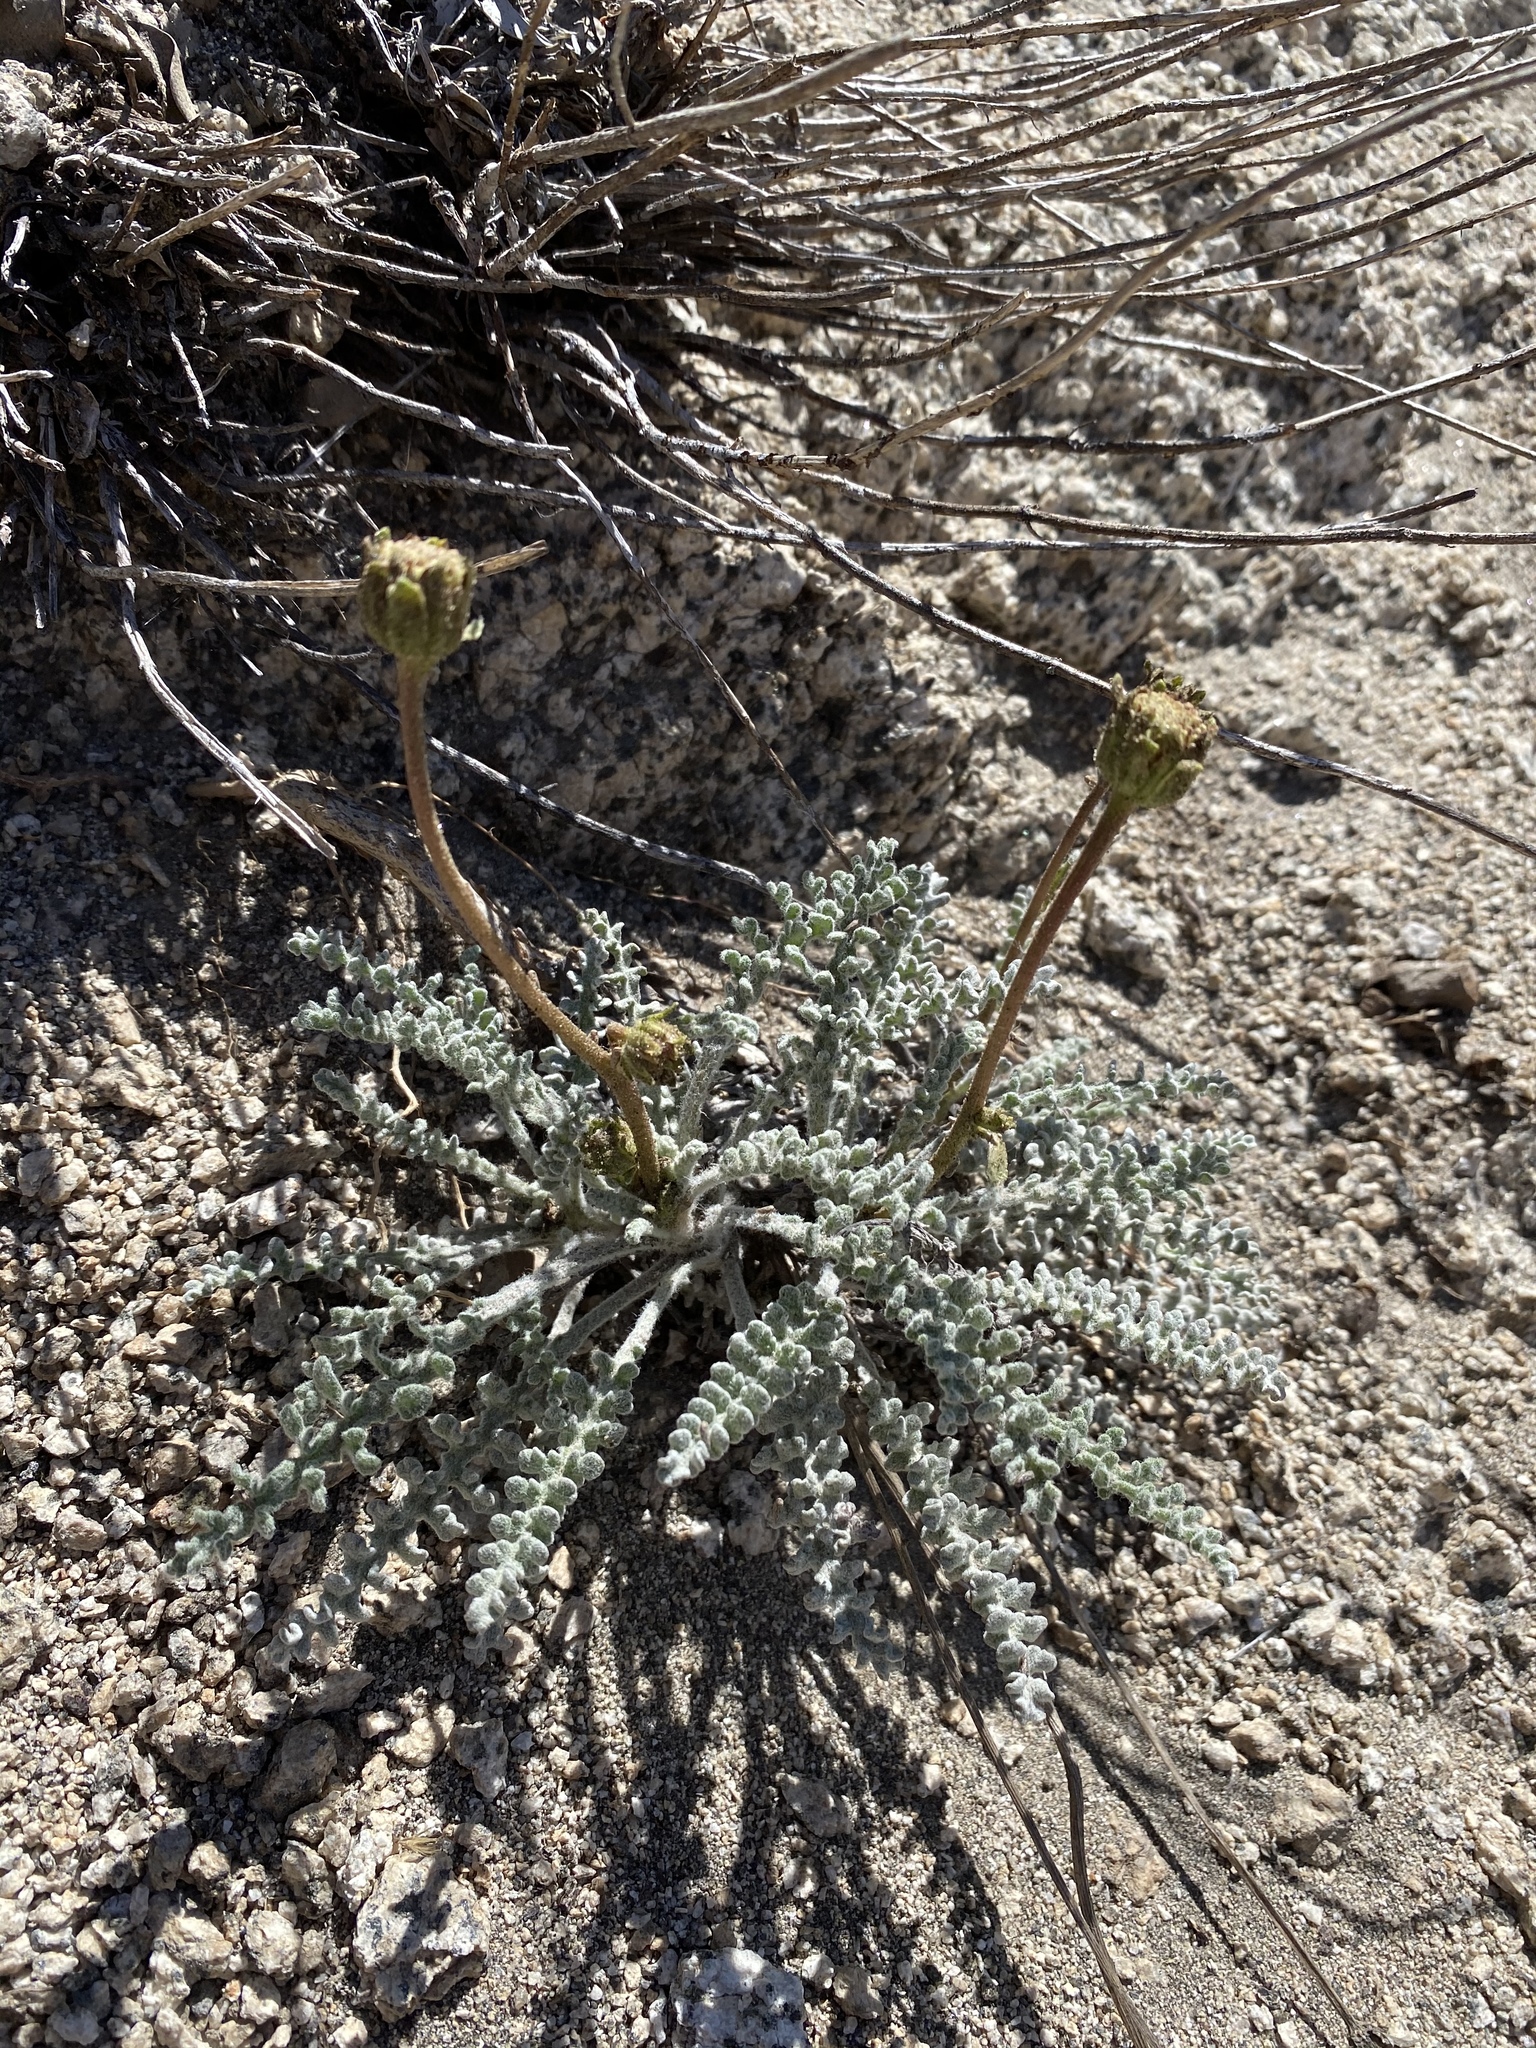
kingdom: Plantae
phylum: Tracheophyta
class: Magnoliopsida
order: Asterales
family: Asteraceae
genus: Chaenactis
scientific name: Chaenactis santolinoides
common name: Santolina pincushion
